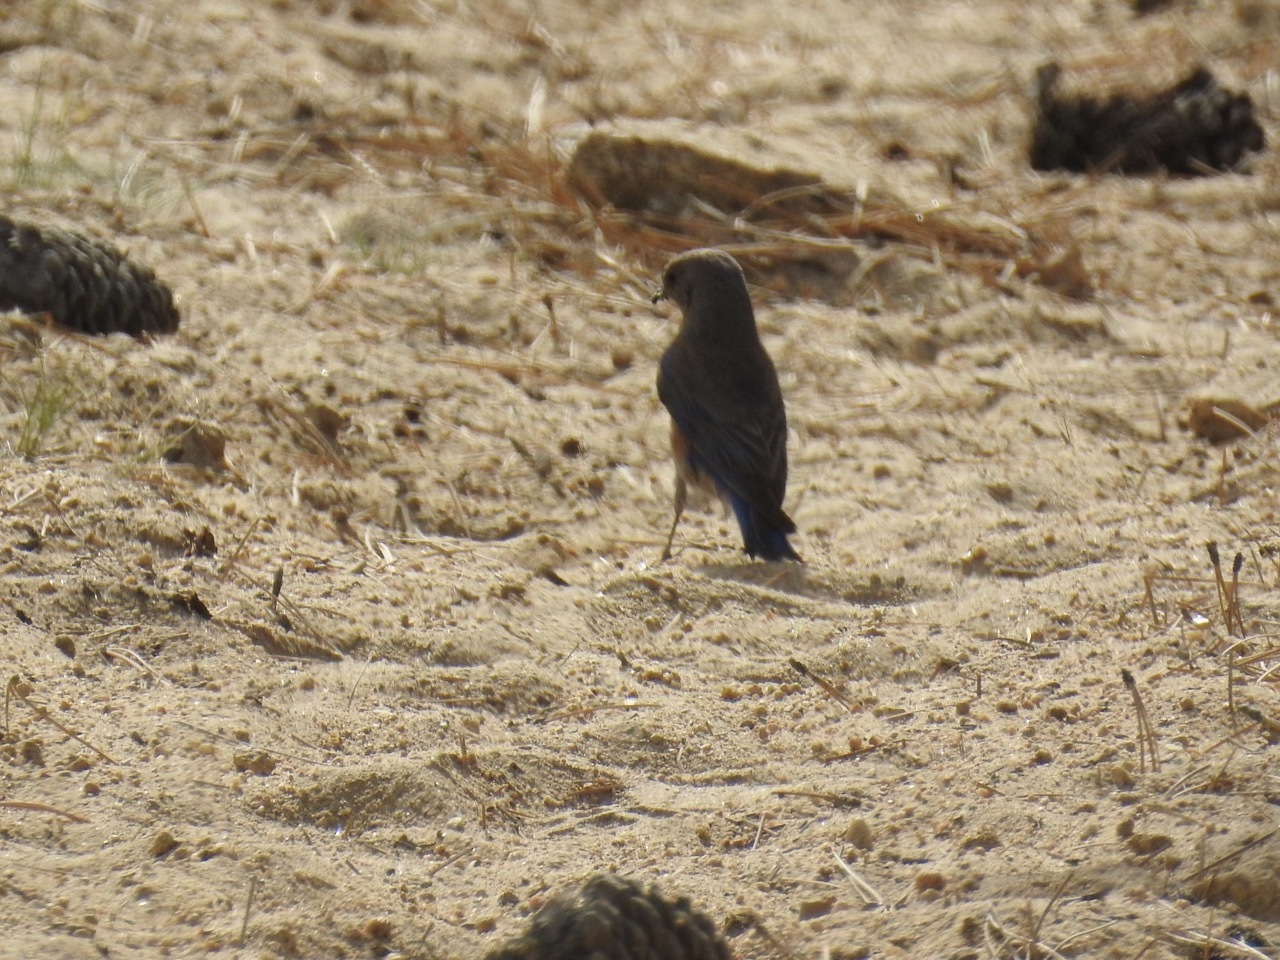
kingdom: Animalia
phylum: Chordata
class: Aves
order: Passeriformes
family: Turdidae
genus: Sialia
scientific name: Sialia mexicana
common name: Western bluebird
